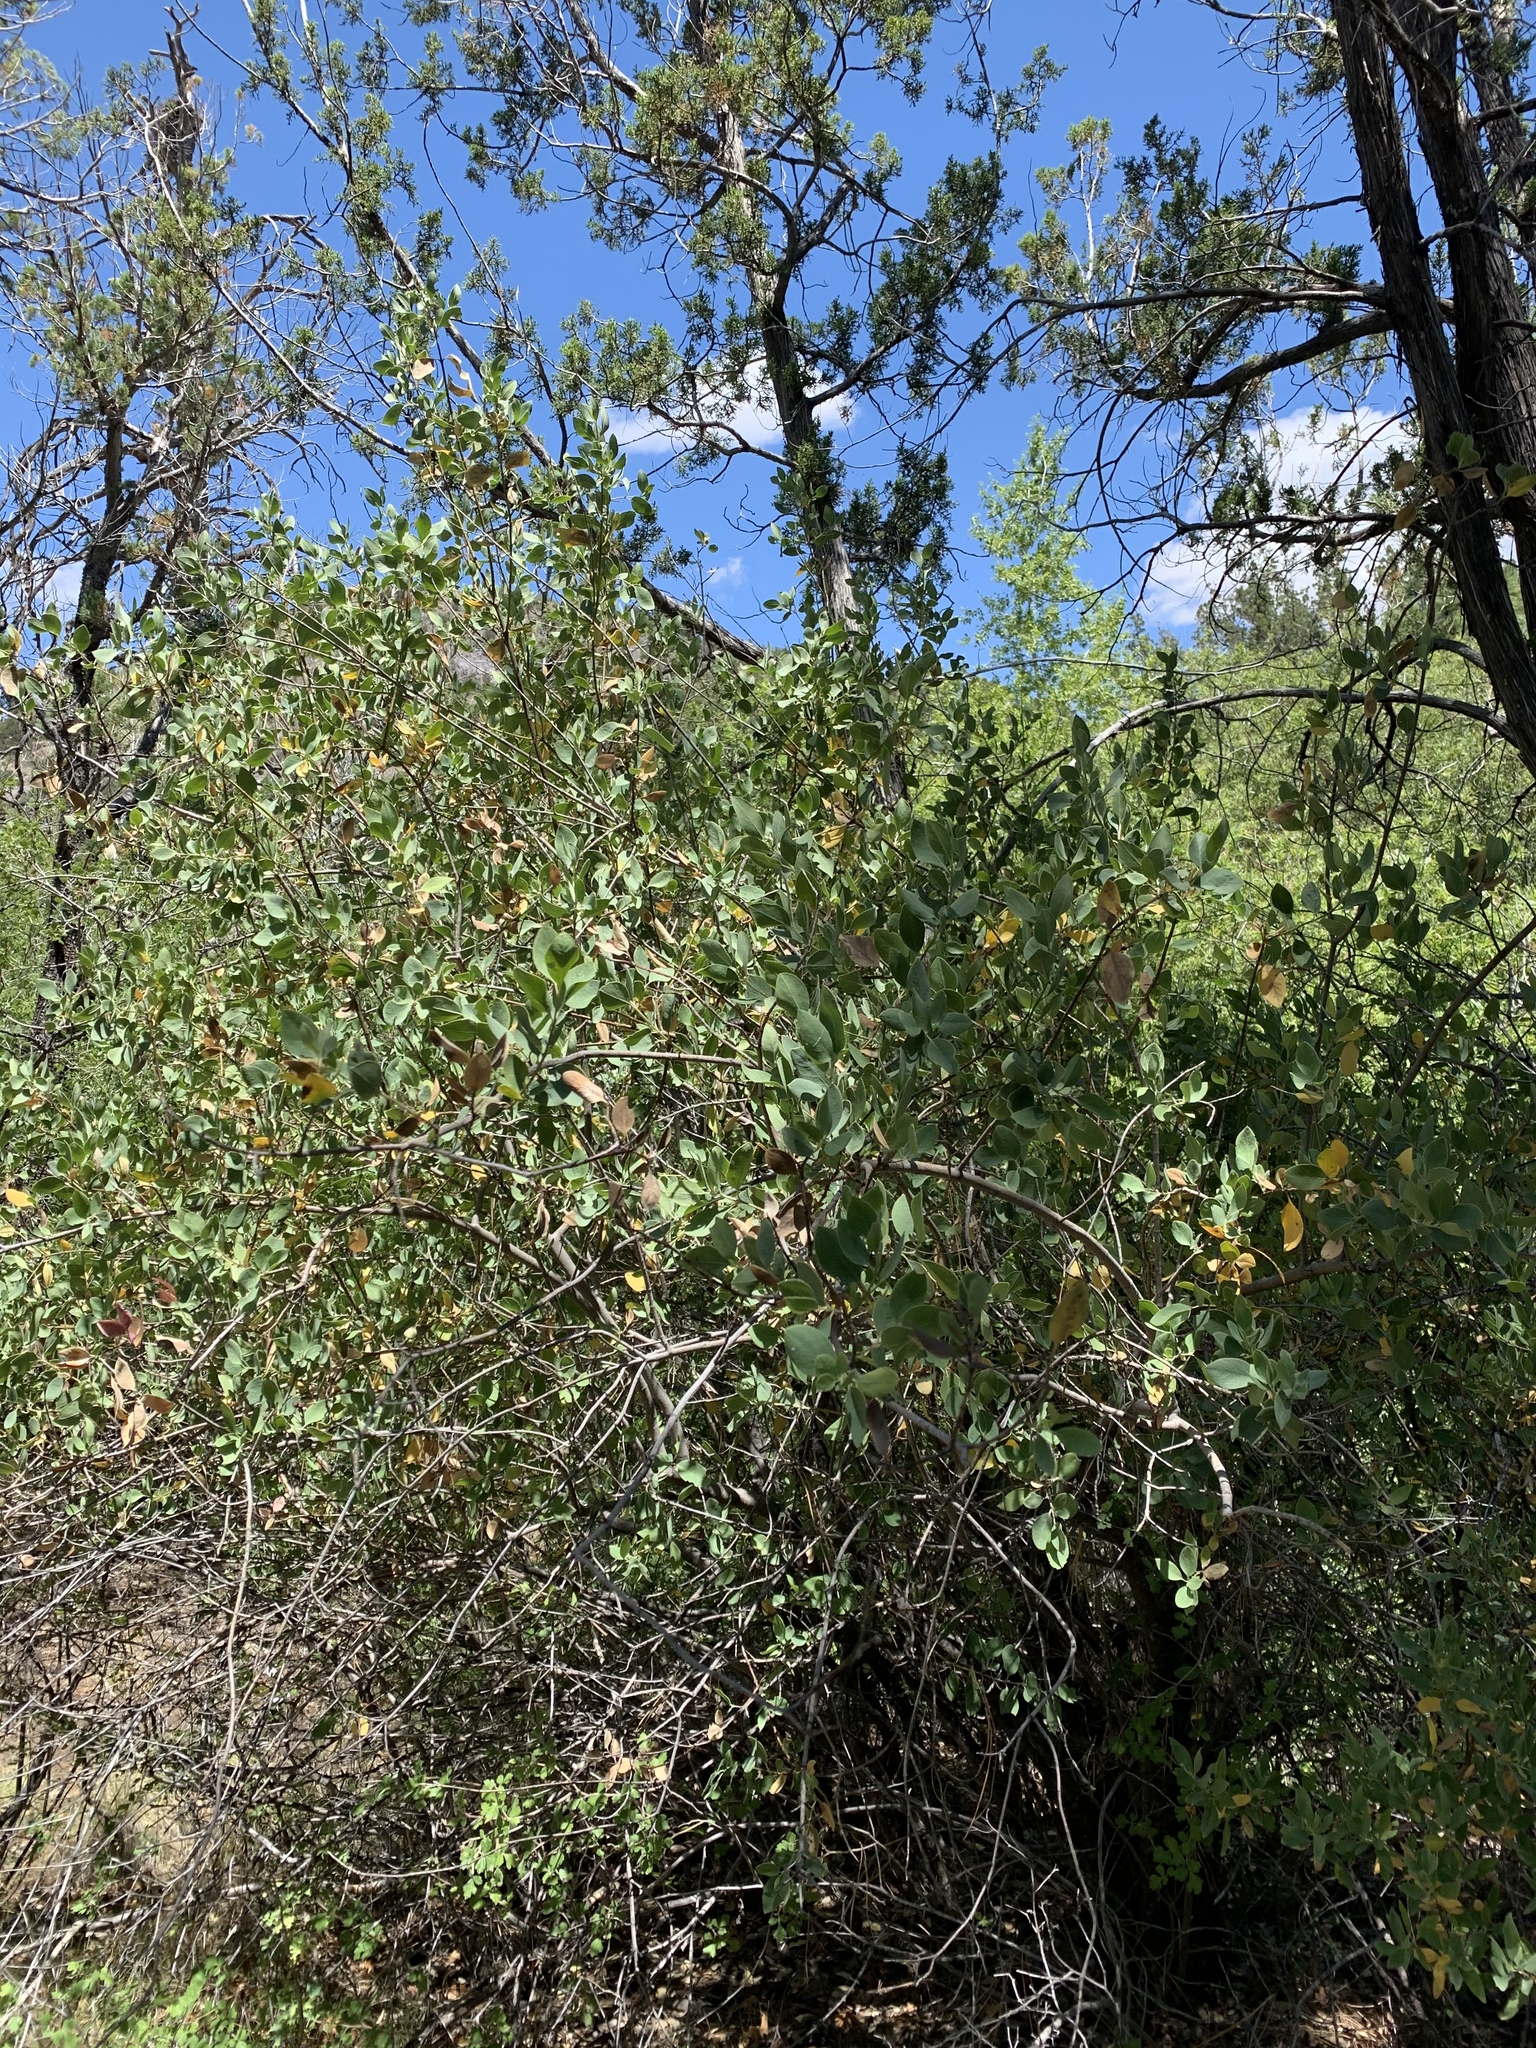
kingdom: Plantae
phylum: Tracheophyta
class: Magnoliopsida
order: Garryales
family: Garryaceae
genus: Garrya
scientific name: Garrya wrightii
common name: Wright's silktassel
